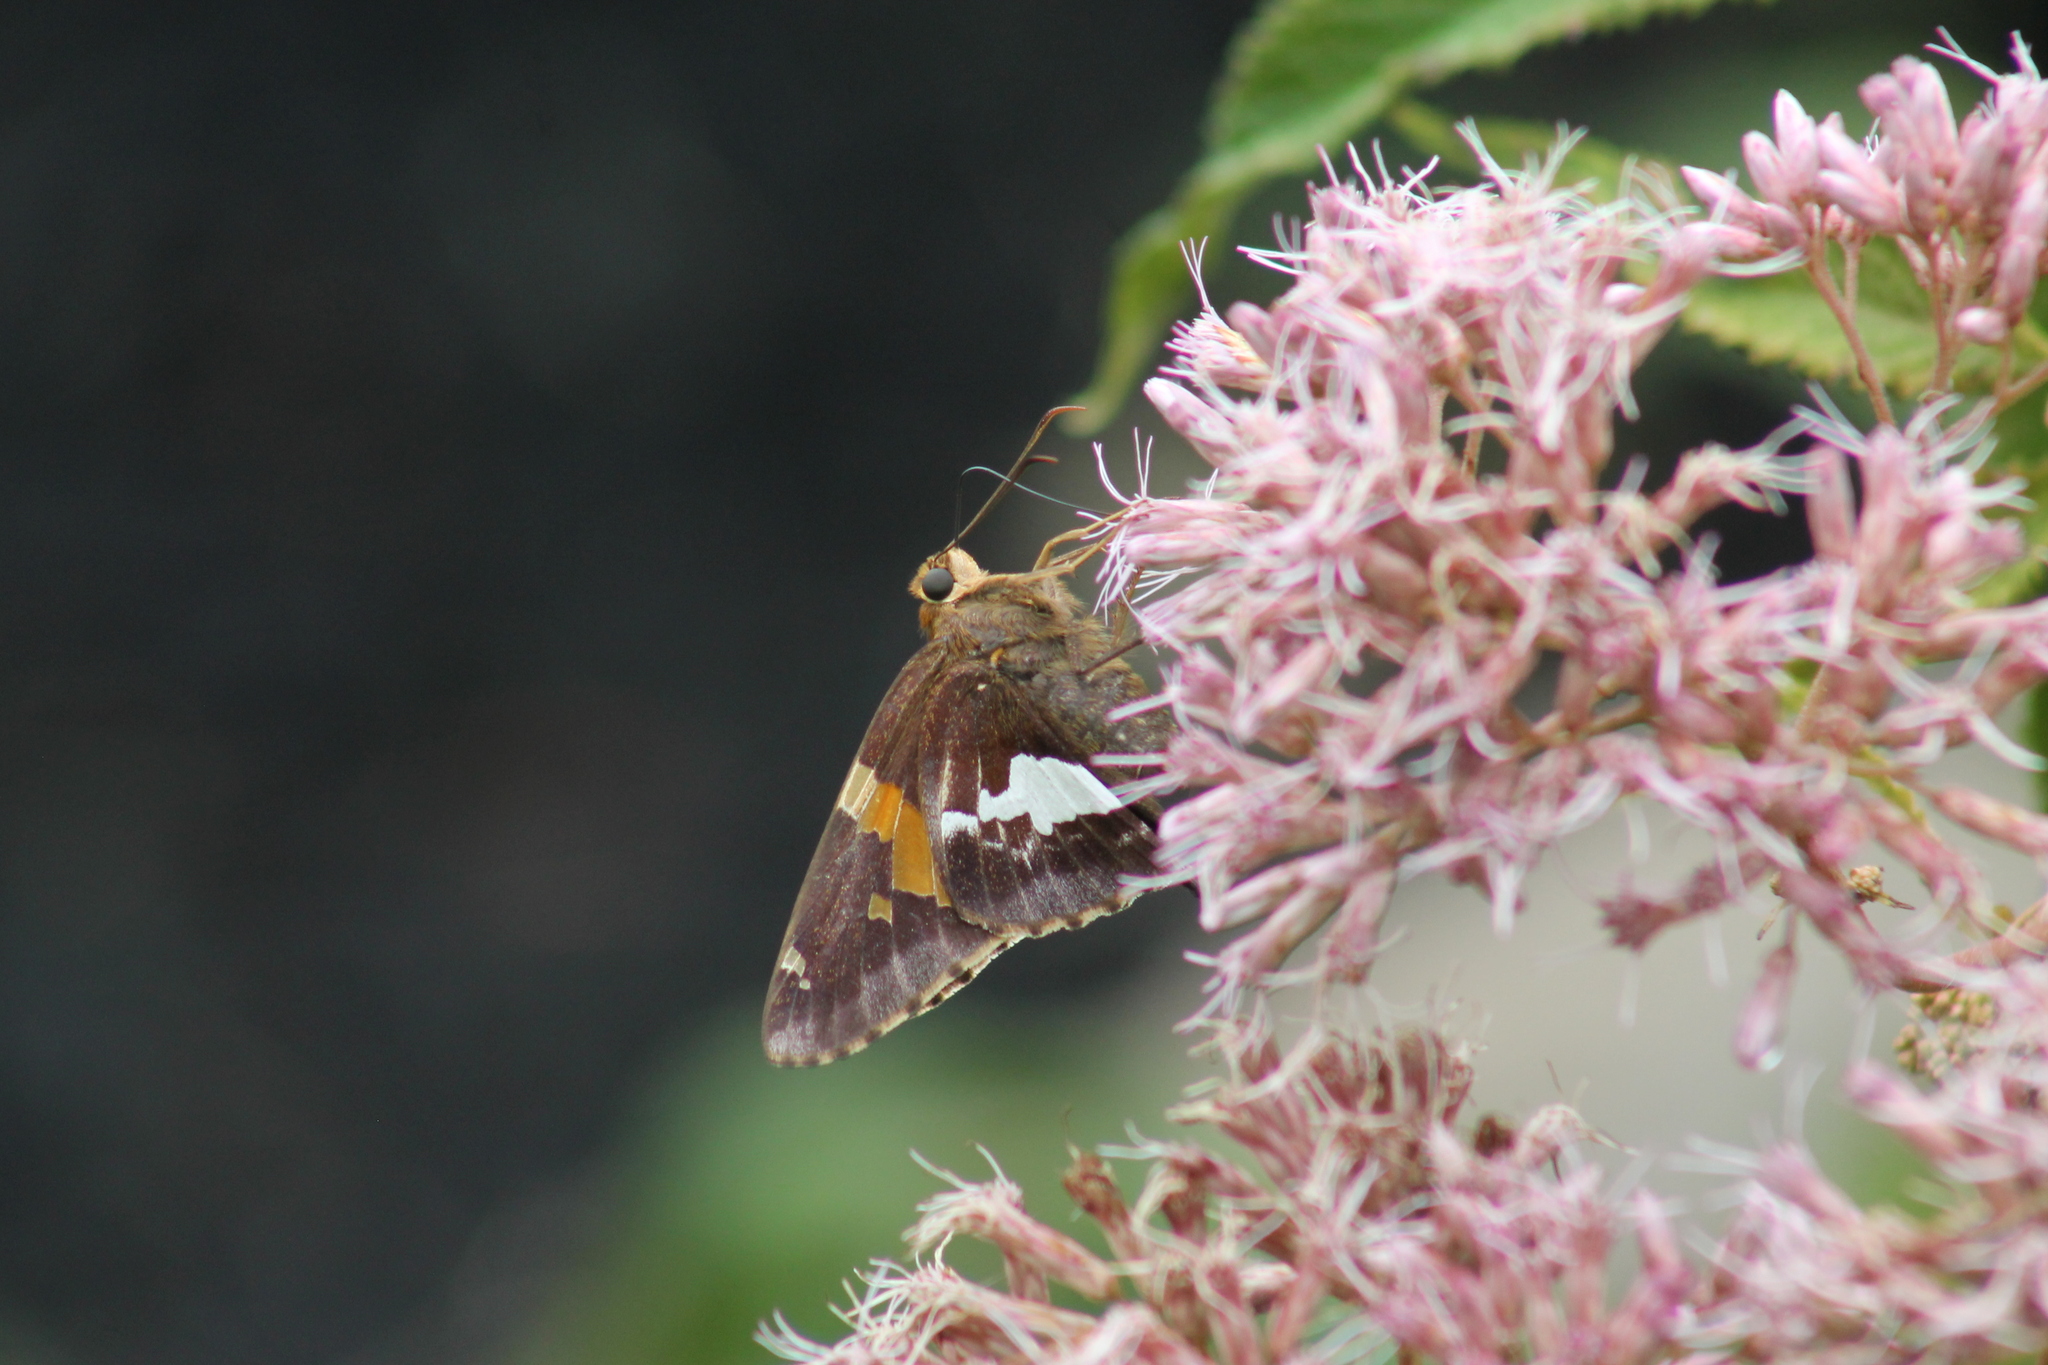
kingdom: Animalia
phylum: Arthropoda
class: Insecta
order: Lepidoptera
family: Hesperiidae
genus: Epargyreus
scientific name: Epargyreus clarus
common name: Silver-spotted skipper
